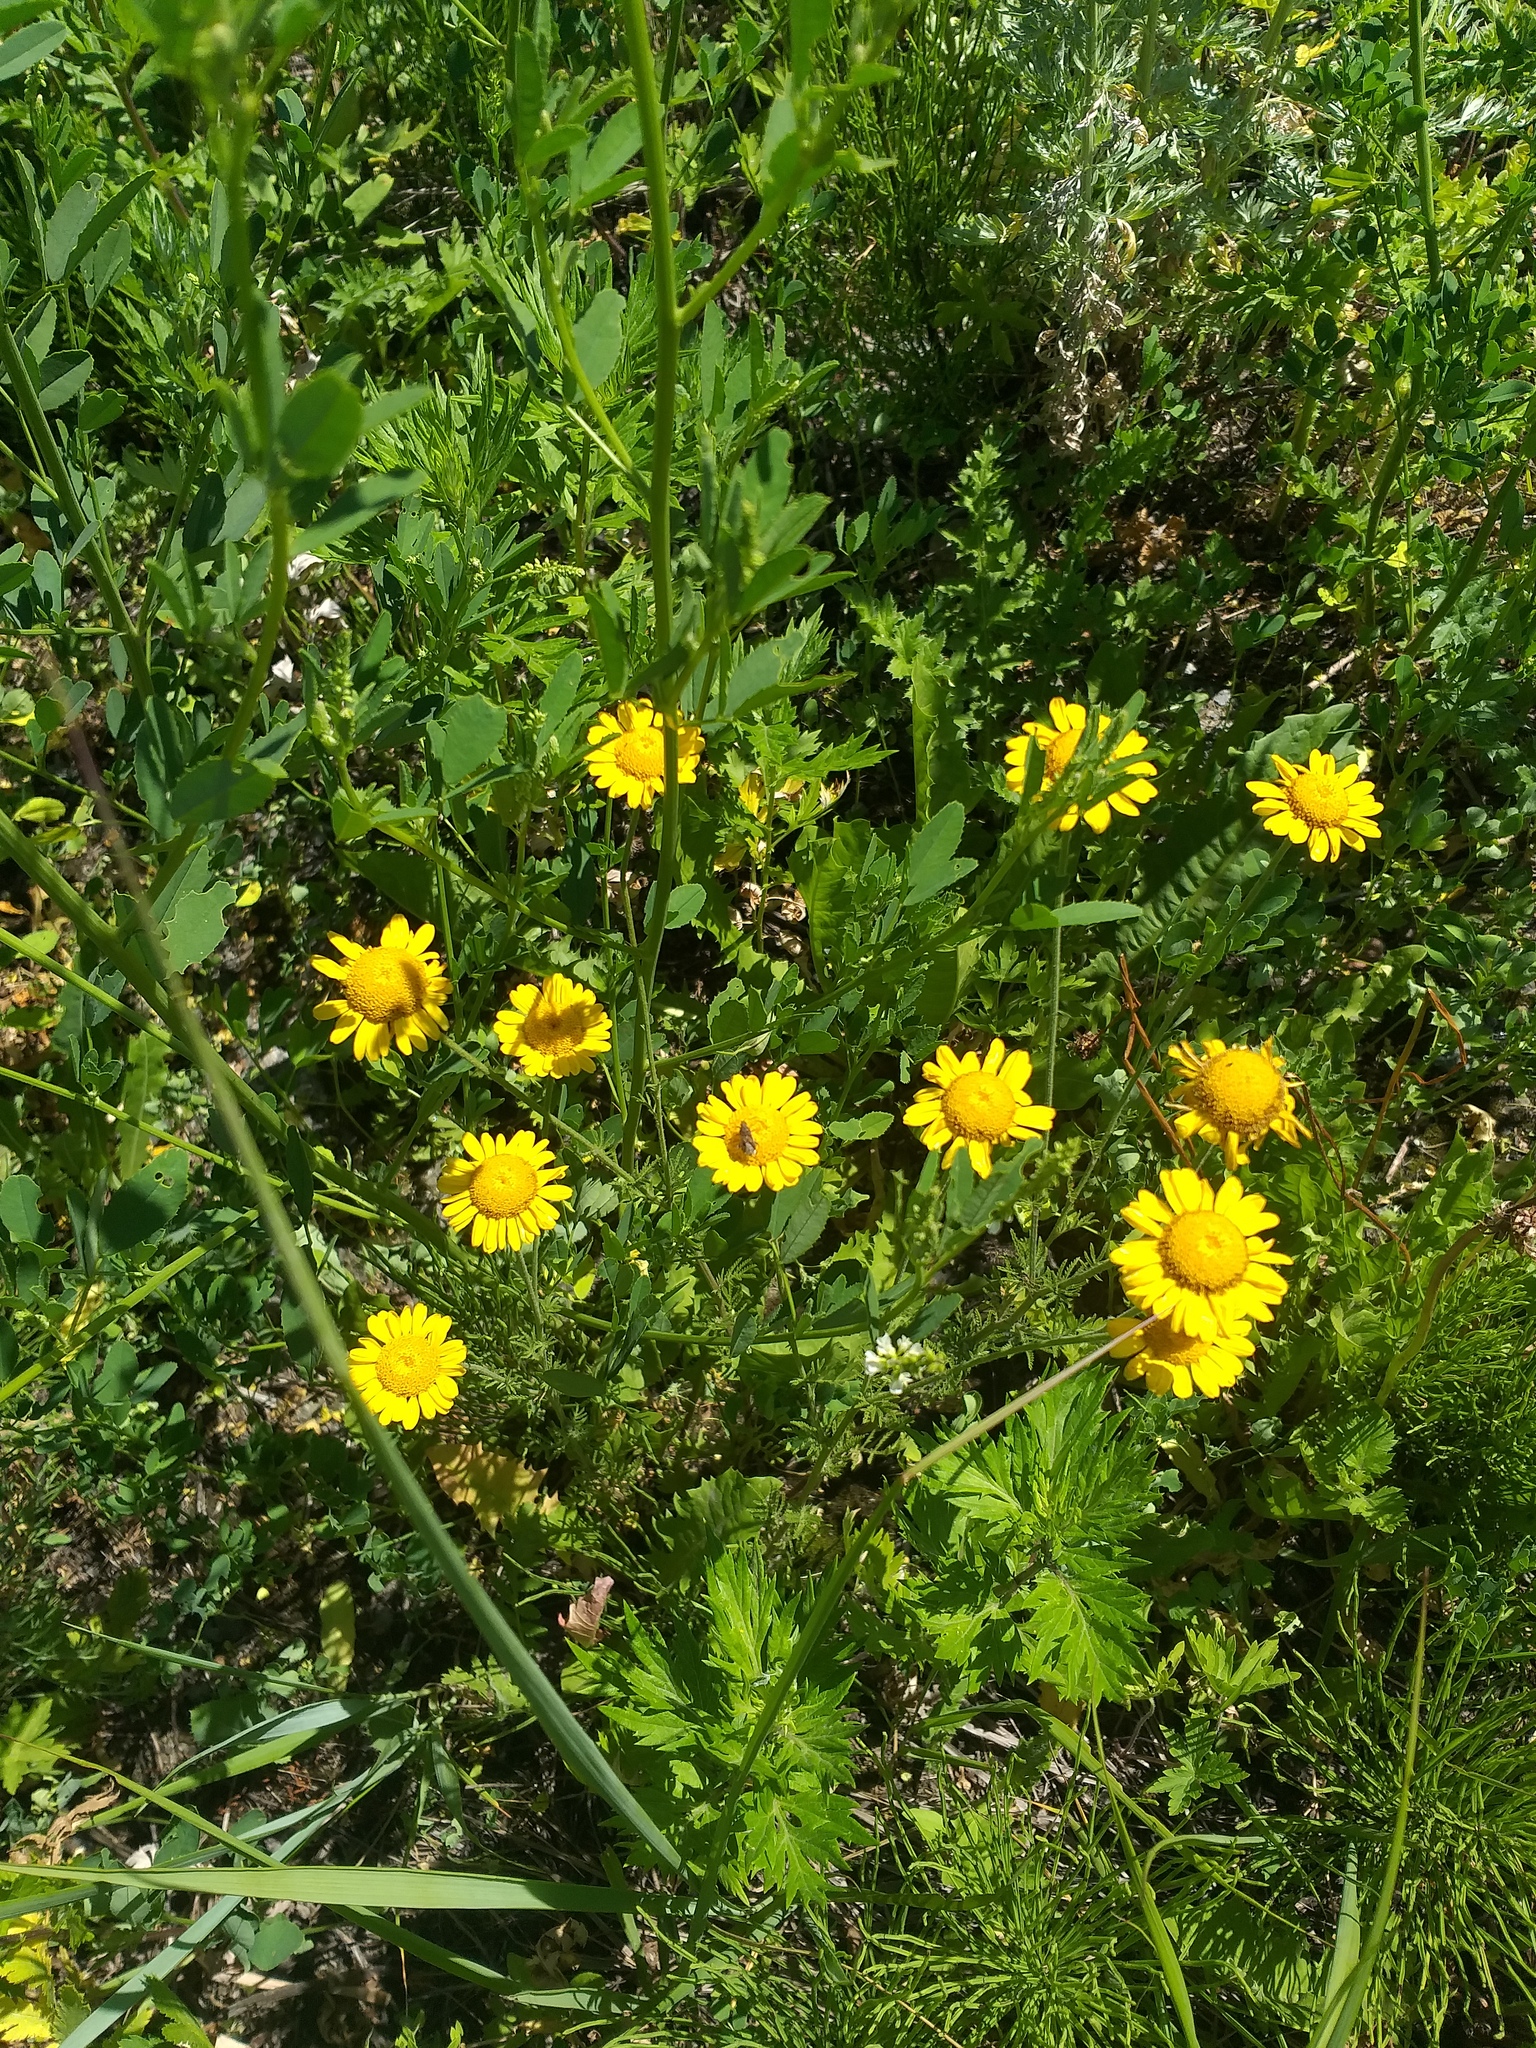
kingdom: Plantae
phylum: Tracheophyta
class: Magnoliopsida
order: Asterales
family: Asteraceae
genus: Cota
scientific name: Cota tinctoria
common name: Golden chamomile
